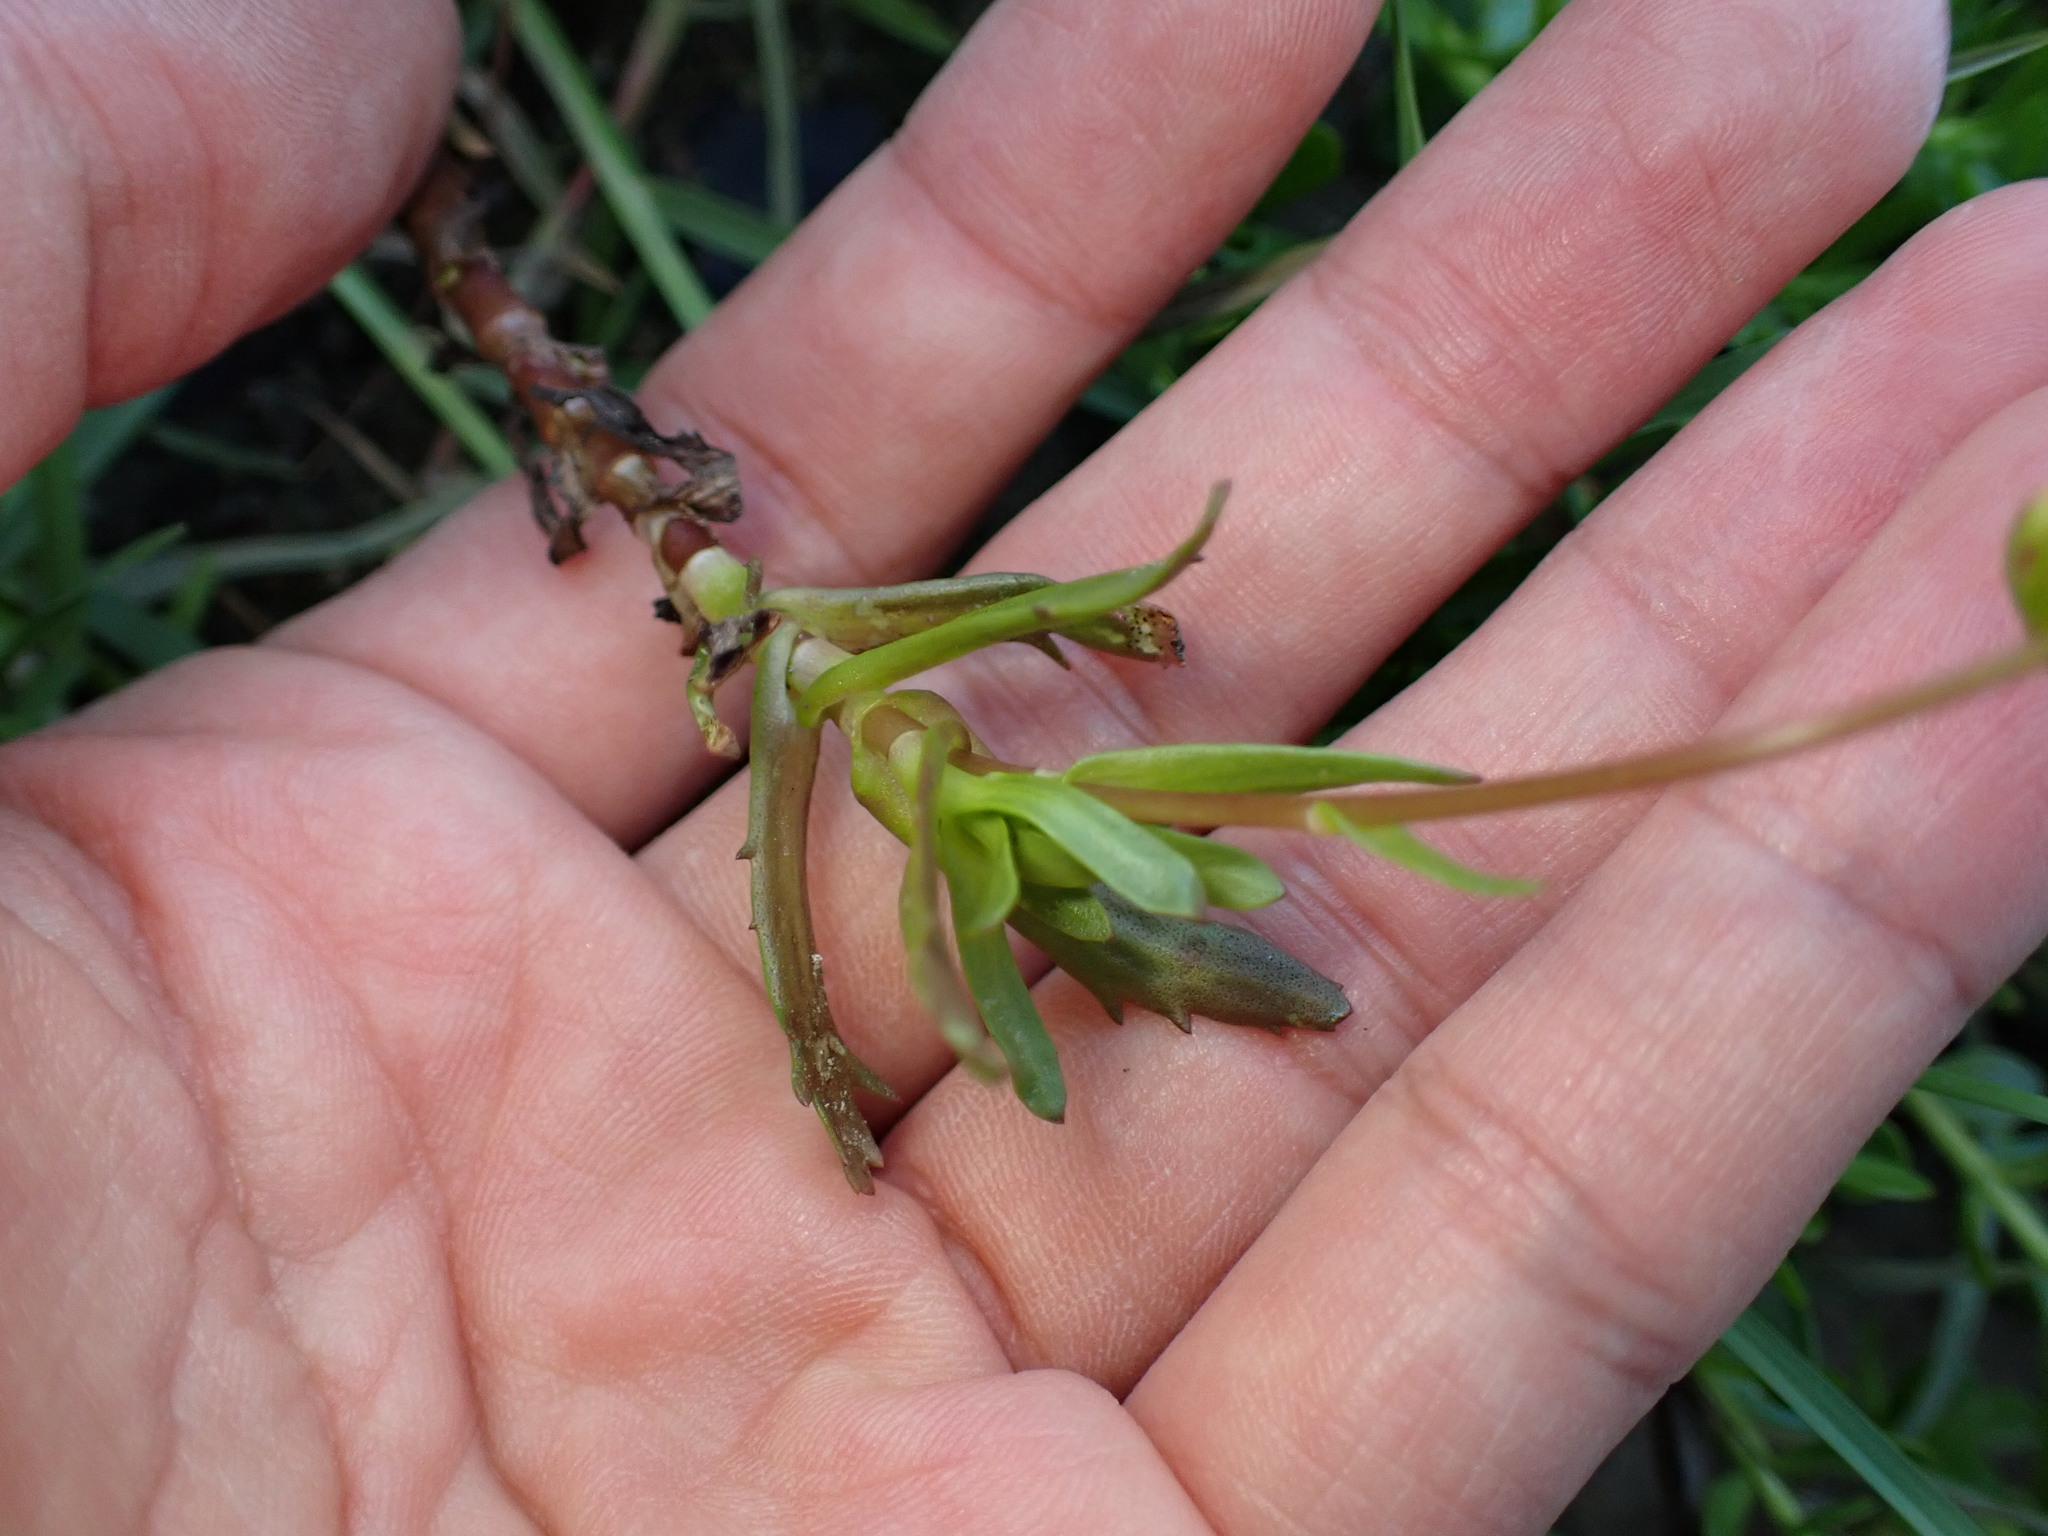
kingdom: Plantae
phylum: Tracheophyta
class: Magnoliopsida
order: Asterales
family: Asteraceae
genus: Cotula
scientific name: Cotula coronopifolia
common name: Buttonweed
